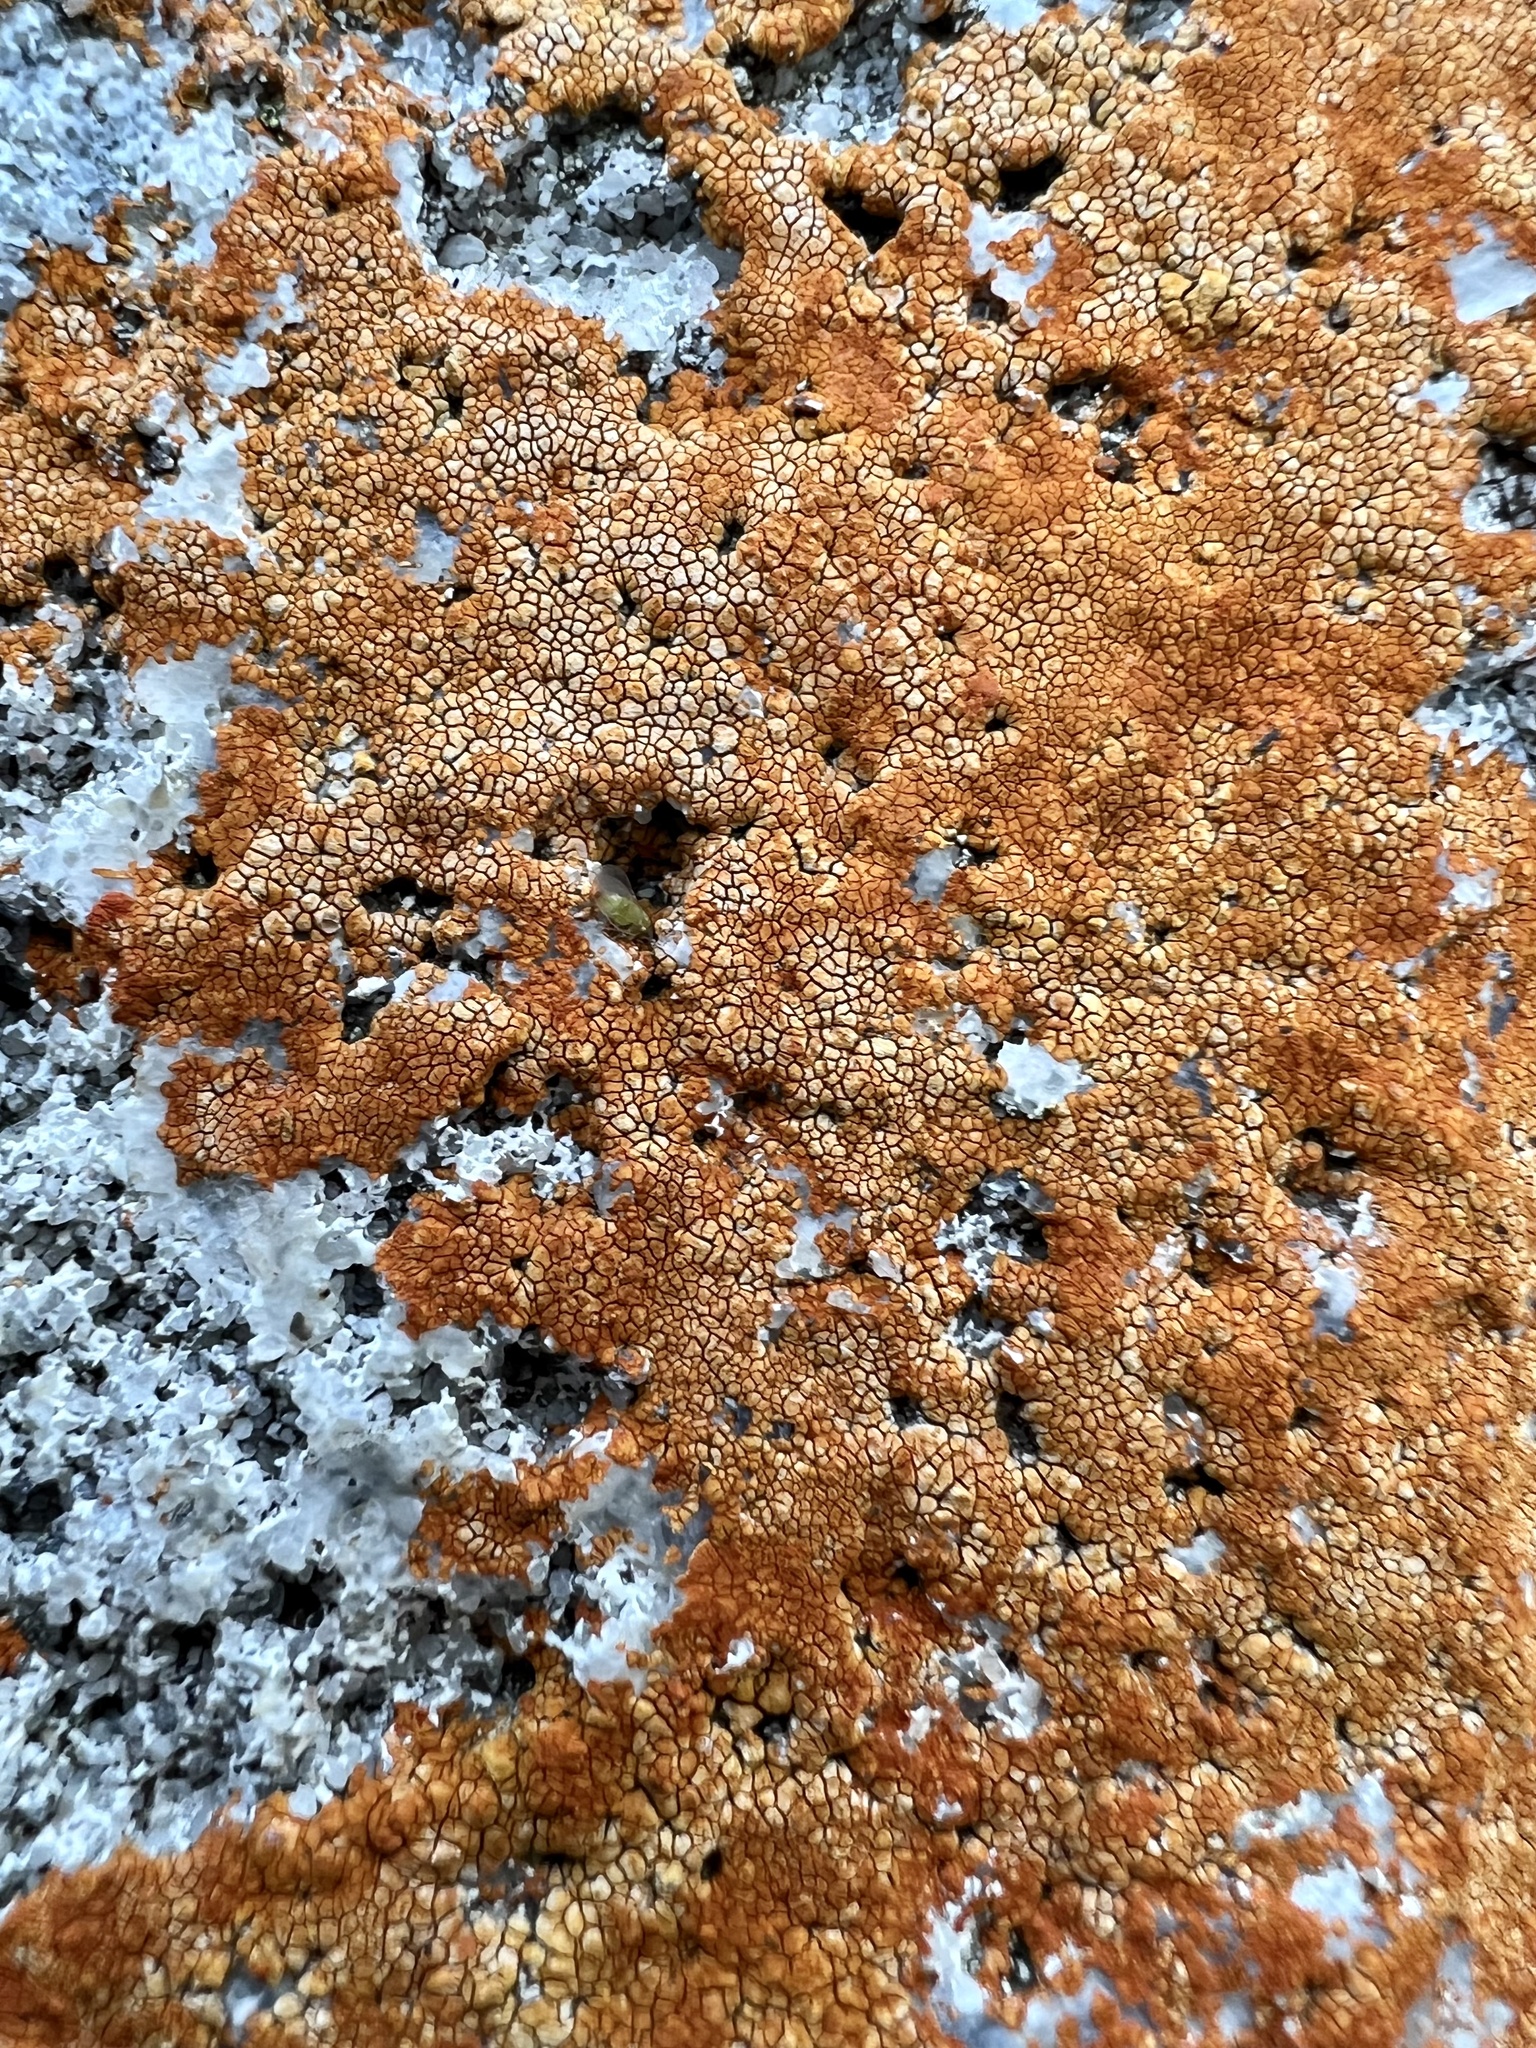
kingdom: Fungi
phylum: Ascomycota
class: Lecanoromycetes
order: Teloschistales
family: Teloschistaceae
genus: Squamulea
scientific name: Squamulea subsoluta
